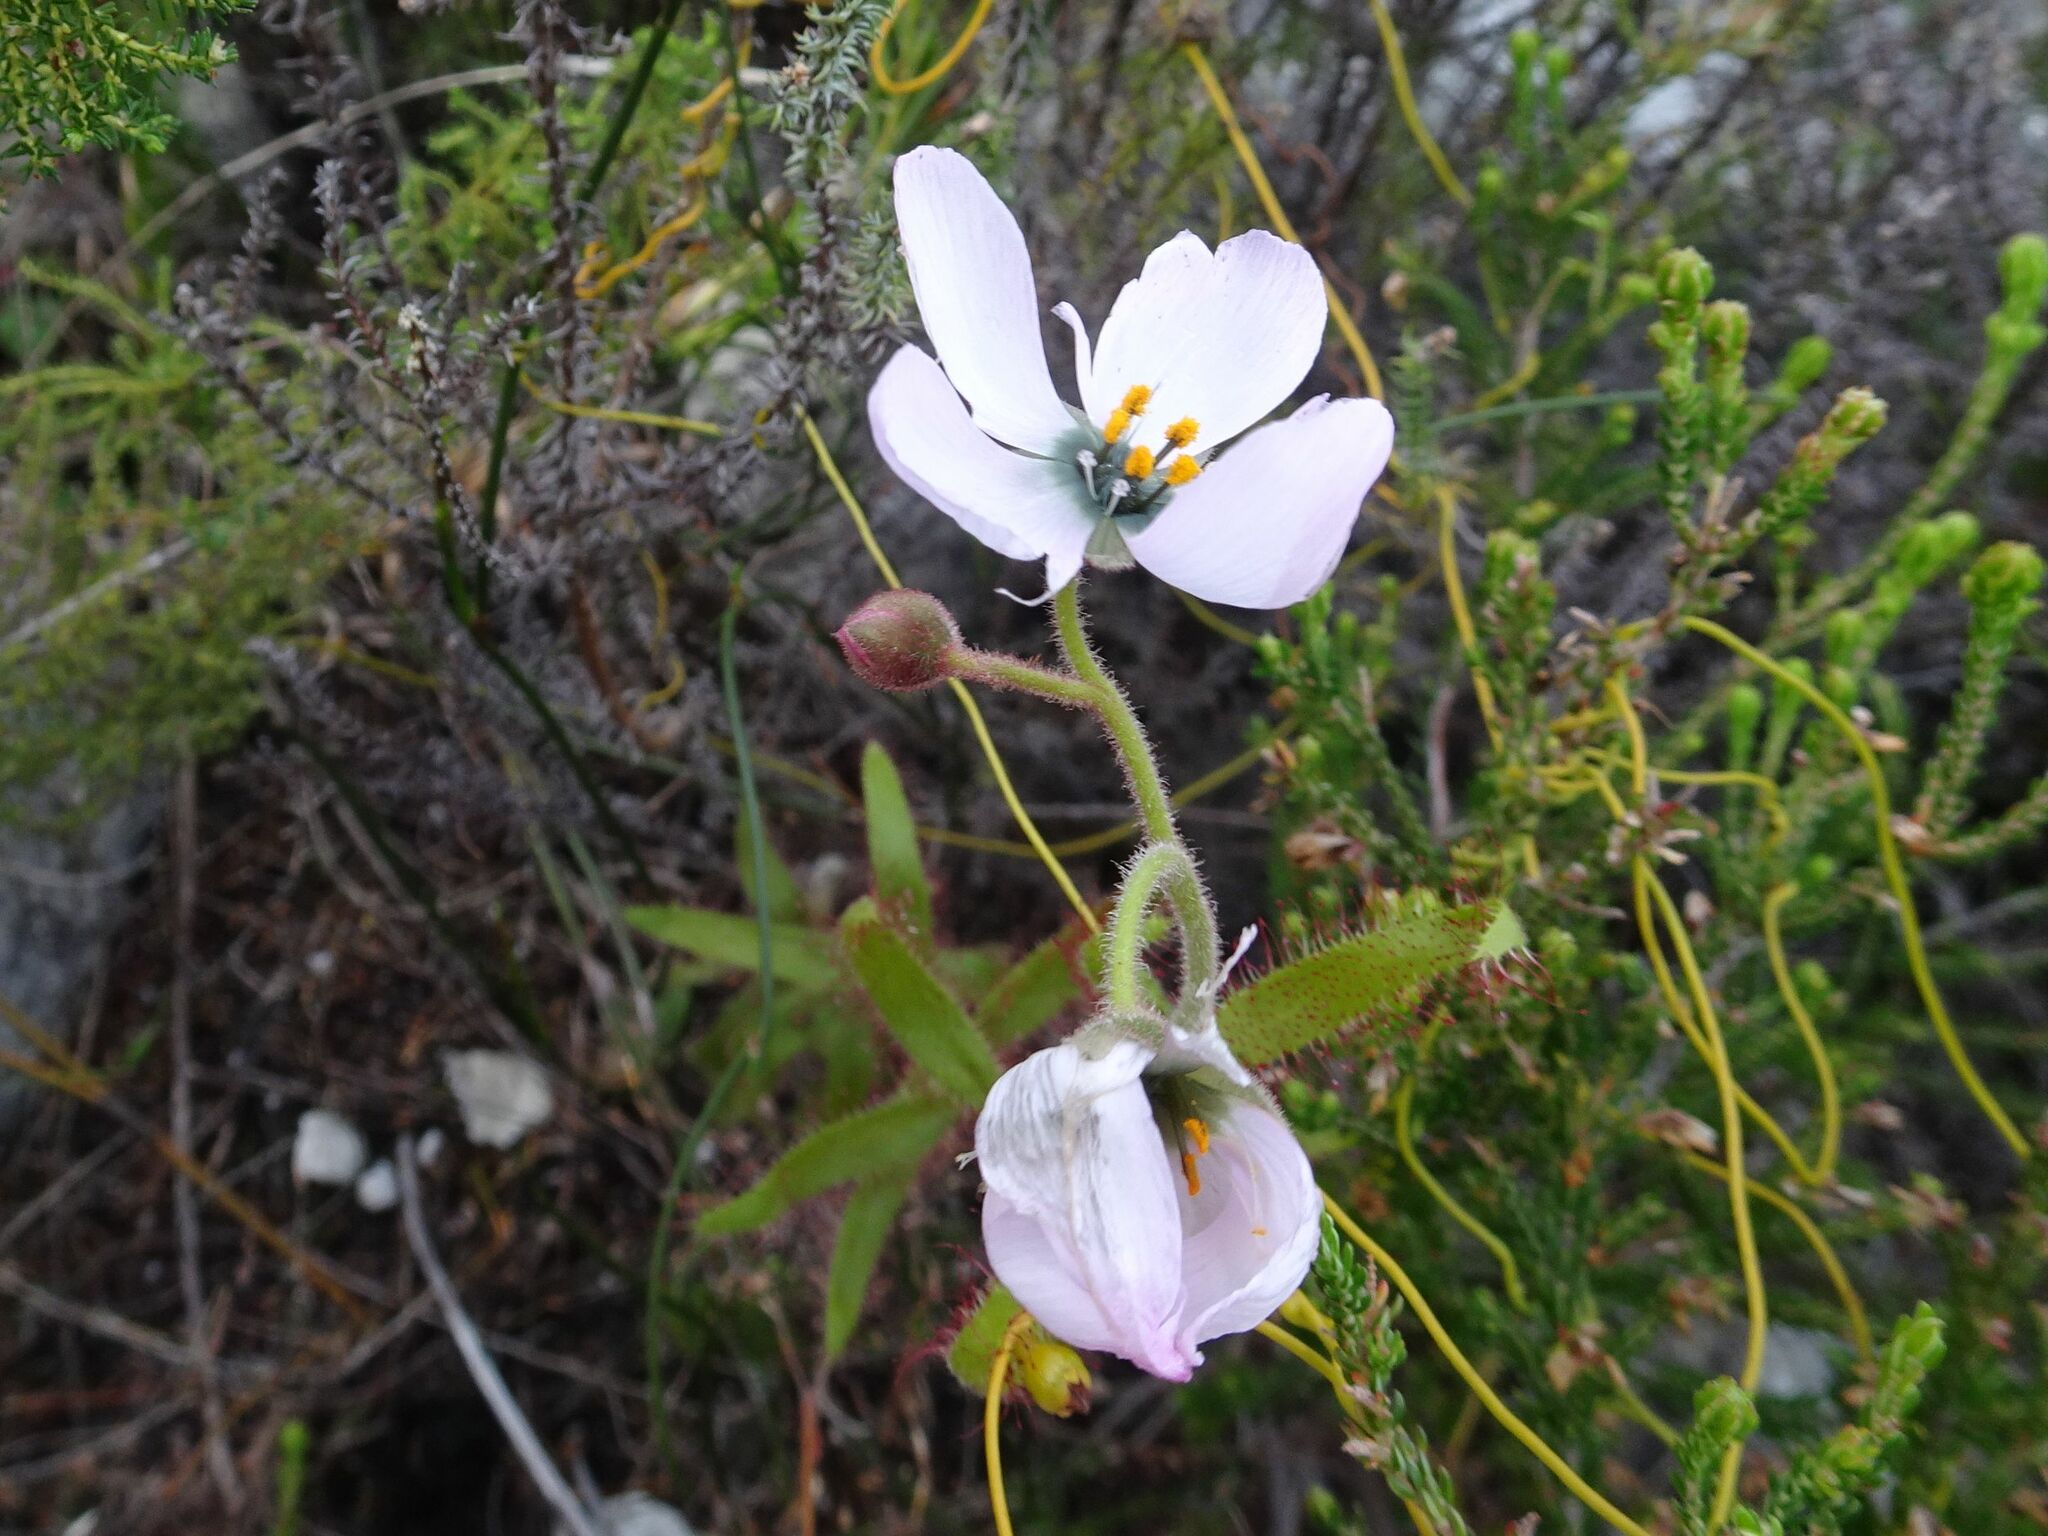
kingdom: Plantae
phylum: Tracheophyta
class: Magnoliopsida
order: Caryophyllales
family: Droseraceae
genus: Drosera
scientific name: Drosera cistiflora
